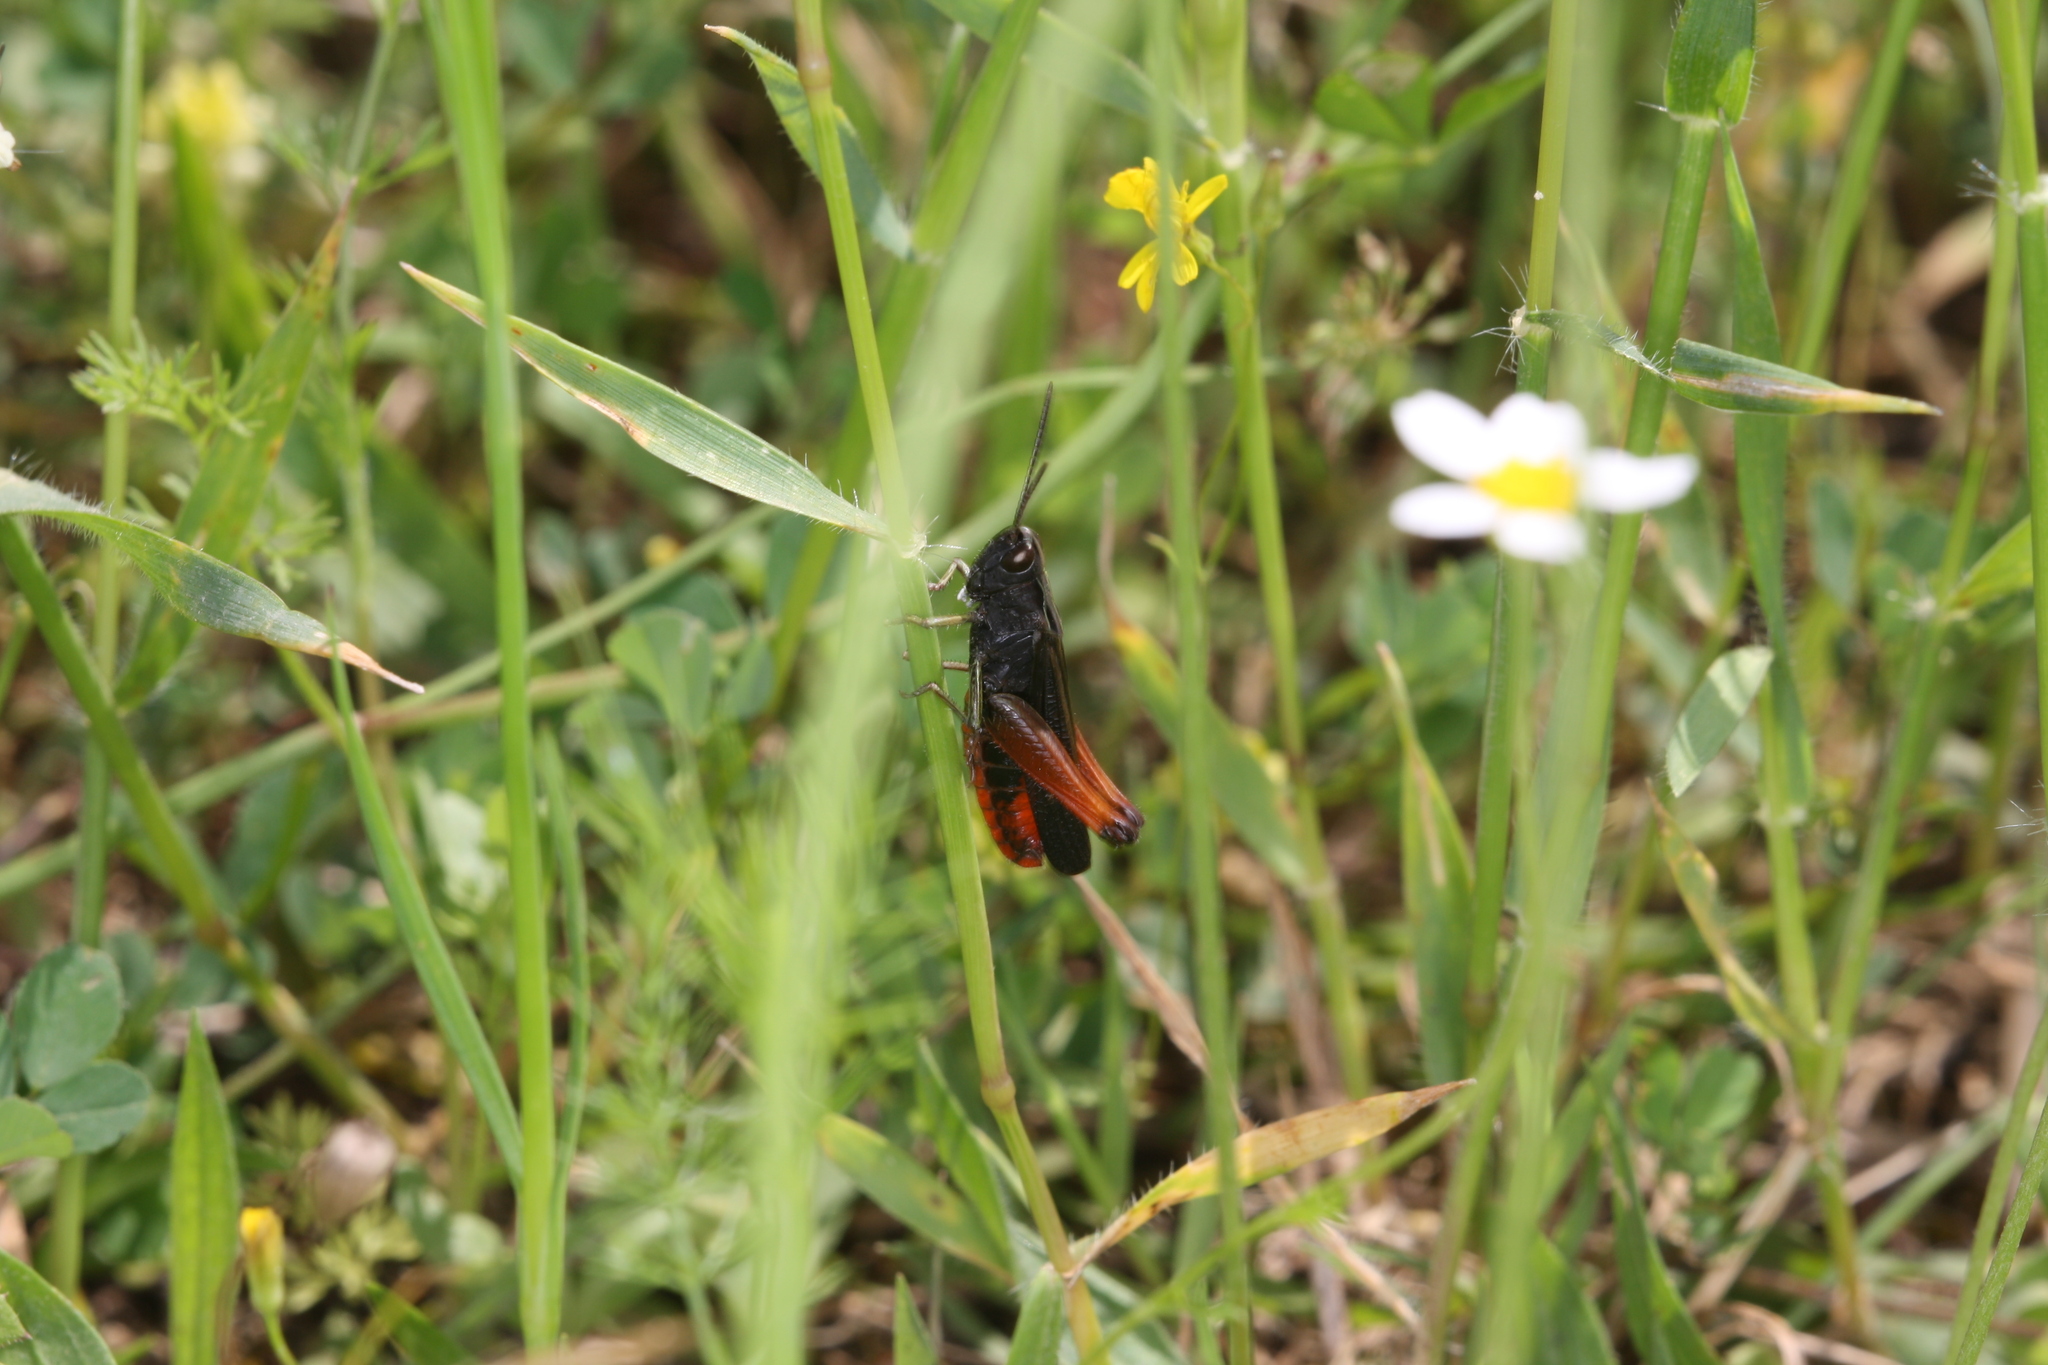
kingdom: Animalia
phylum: Arthropoda
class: Insecta
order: Orthoptera
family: Acrididae
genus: Omocestus
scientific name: Omocestus rufipes
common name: Woodland grasshopper
